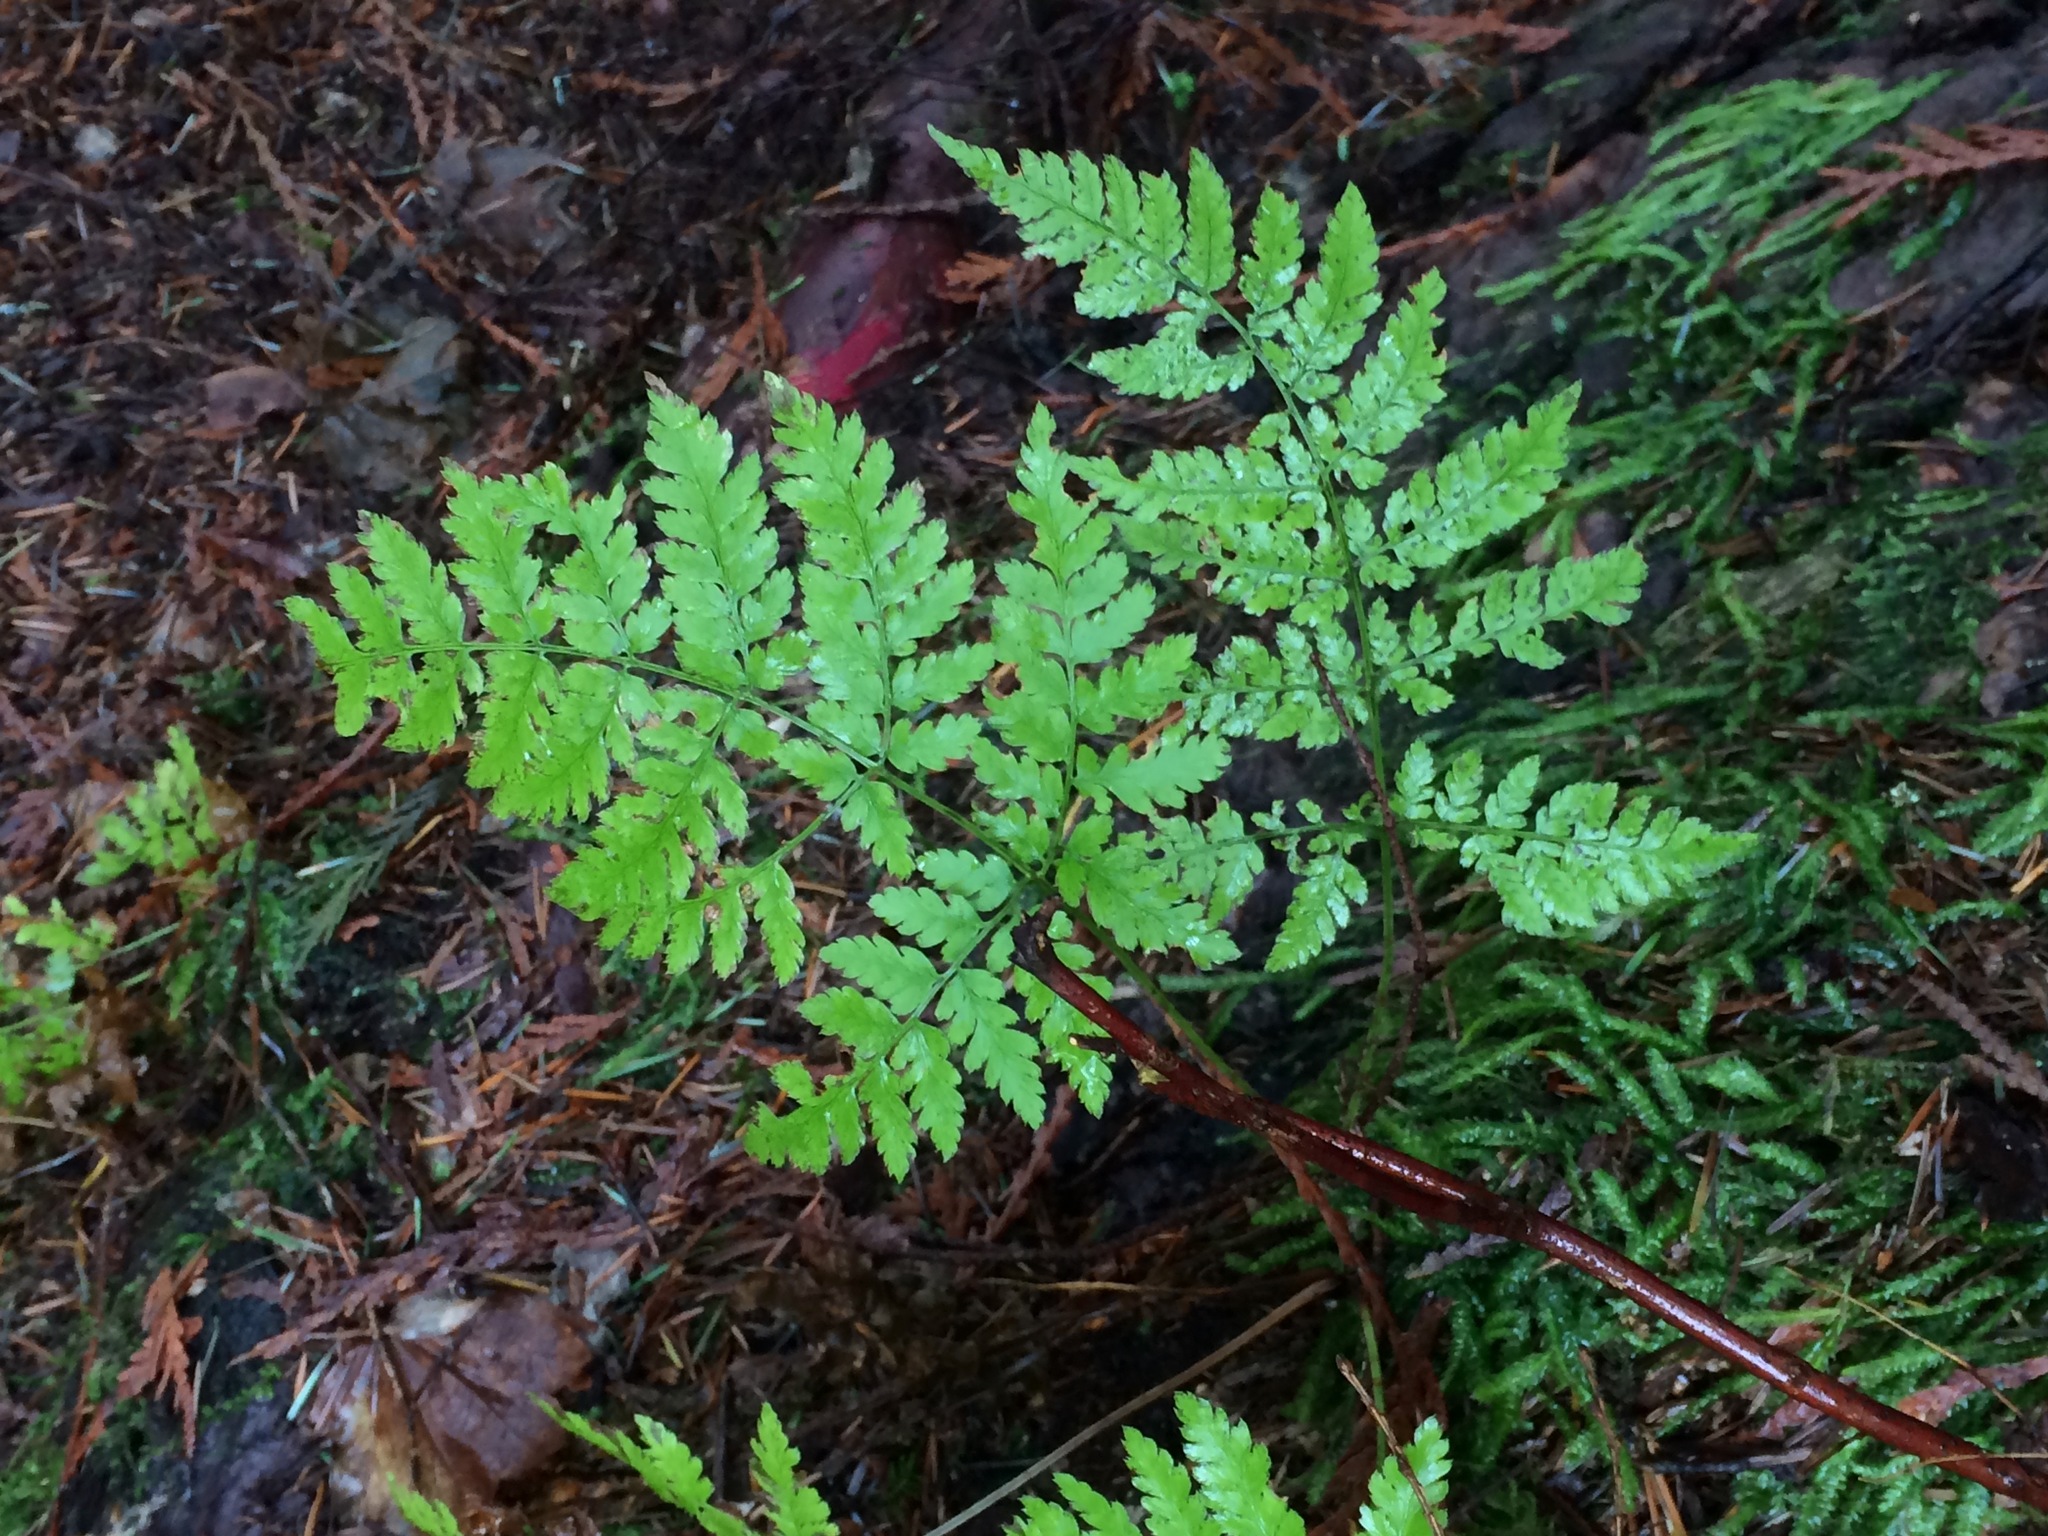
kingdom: Plantae
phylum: Tracheophyta
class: Polypodiopsida
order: Polypodiales
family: Dryopteridaceae
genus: Dryopteris
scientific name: Dryopteris expansa
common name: Northern buckler fern
